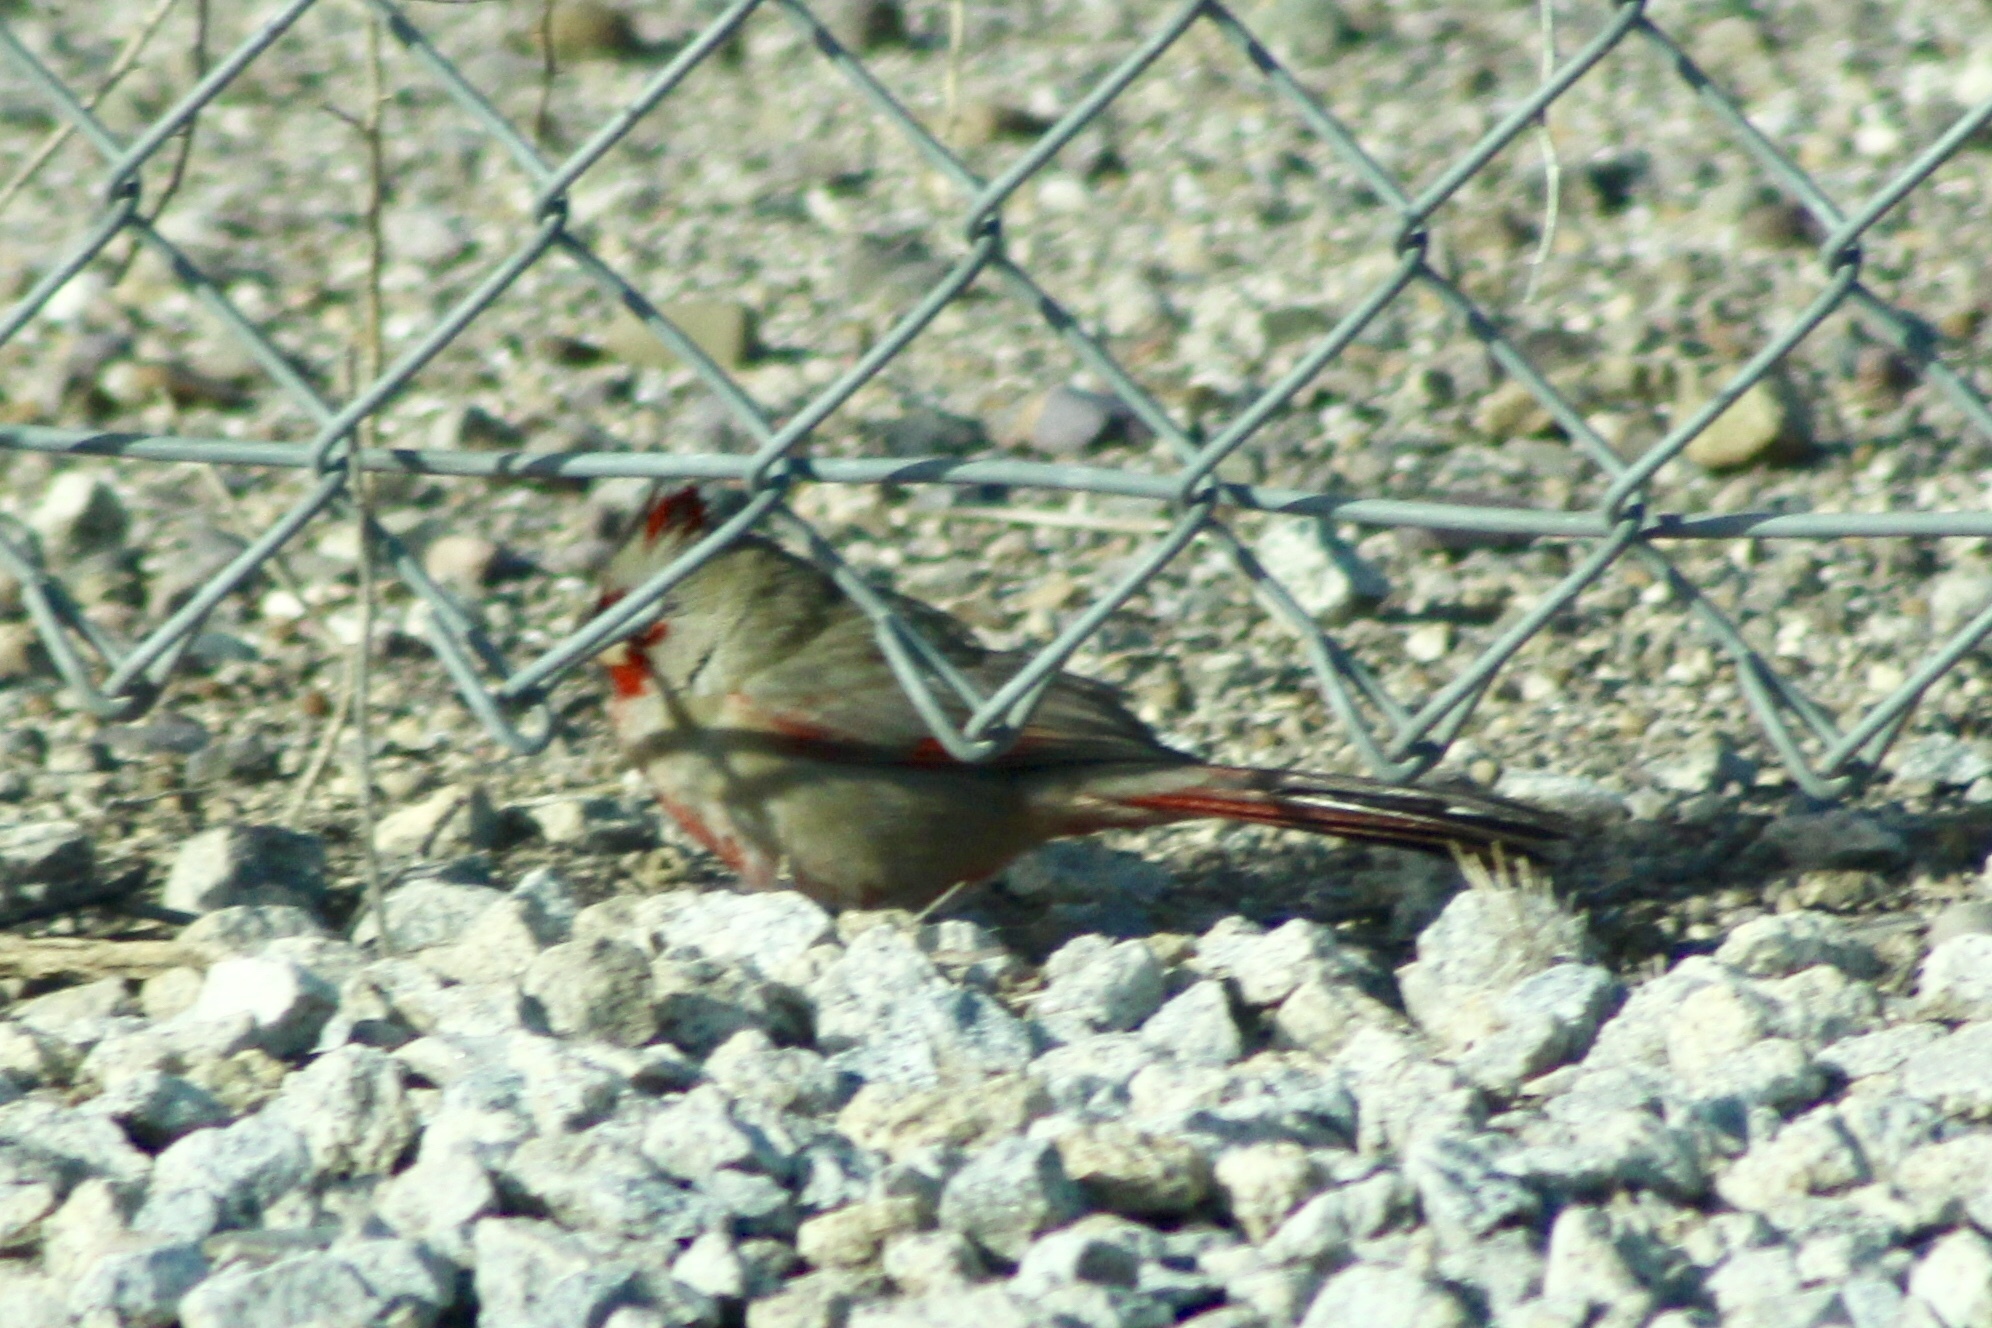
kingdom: Animalia
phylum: Chordata
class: Aves
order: Passeriformes
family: Cardinalidae
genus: Cardinalis
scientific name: Cardinalis sinuatus
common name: Pyrrhuloxia
